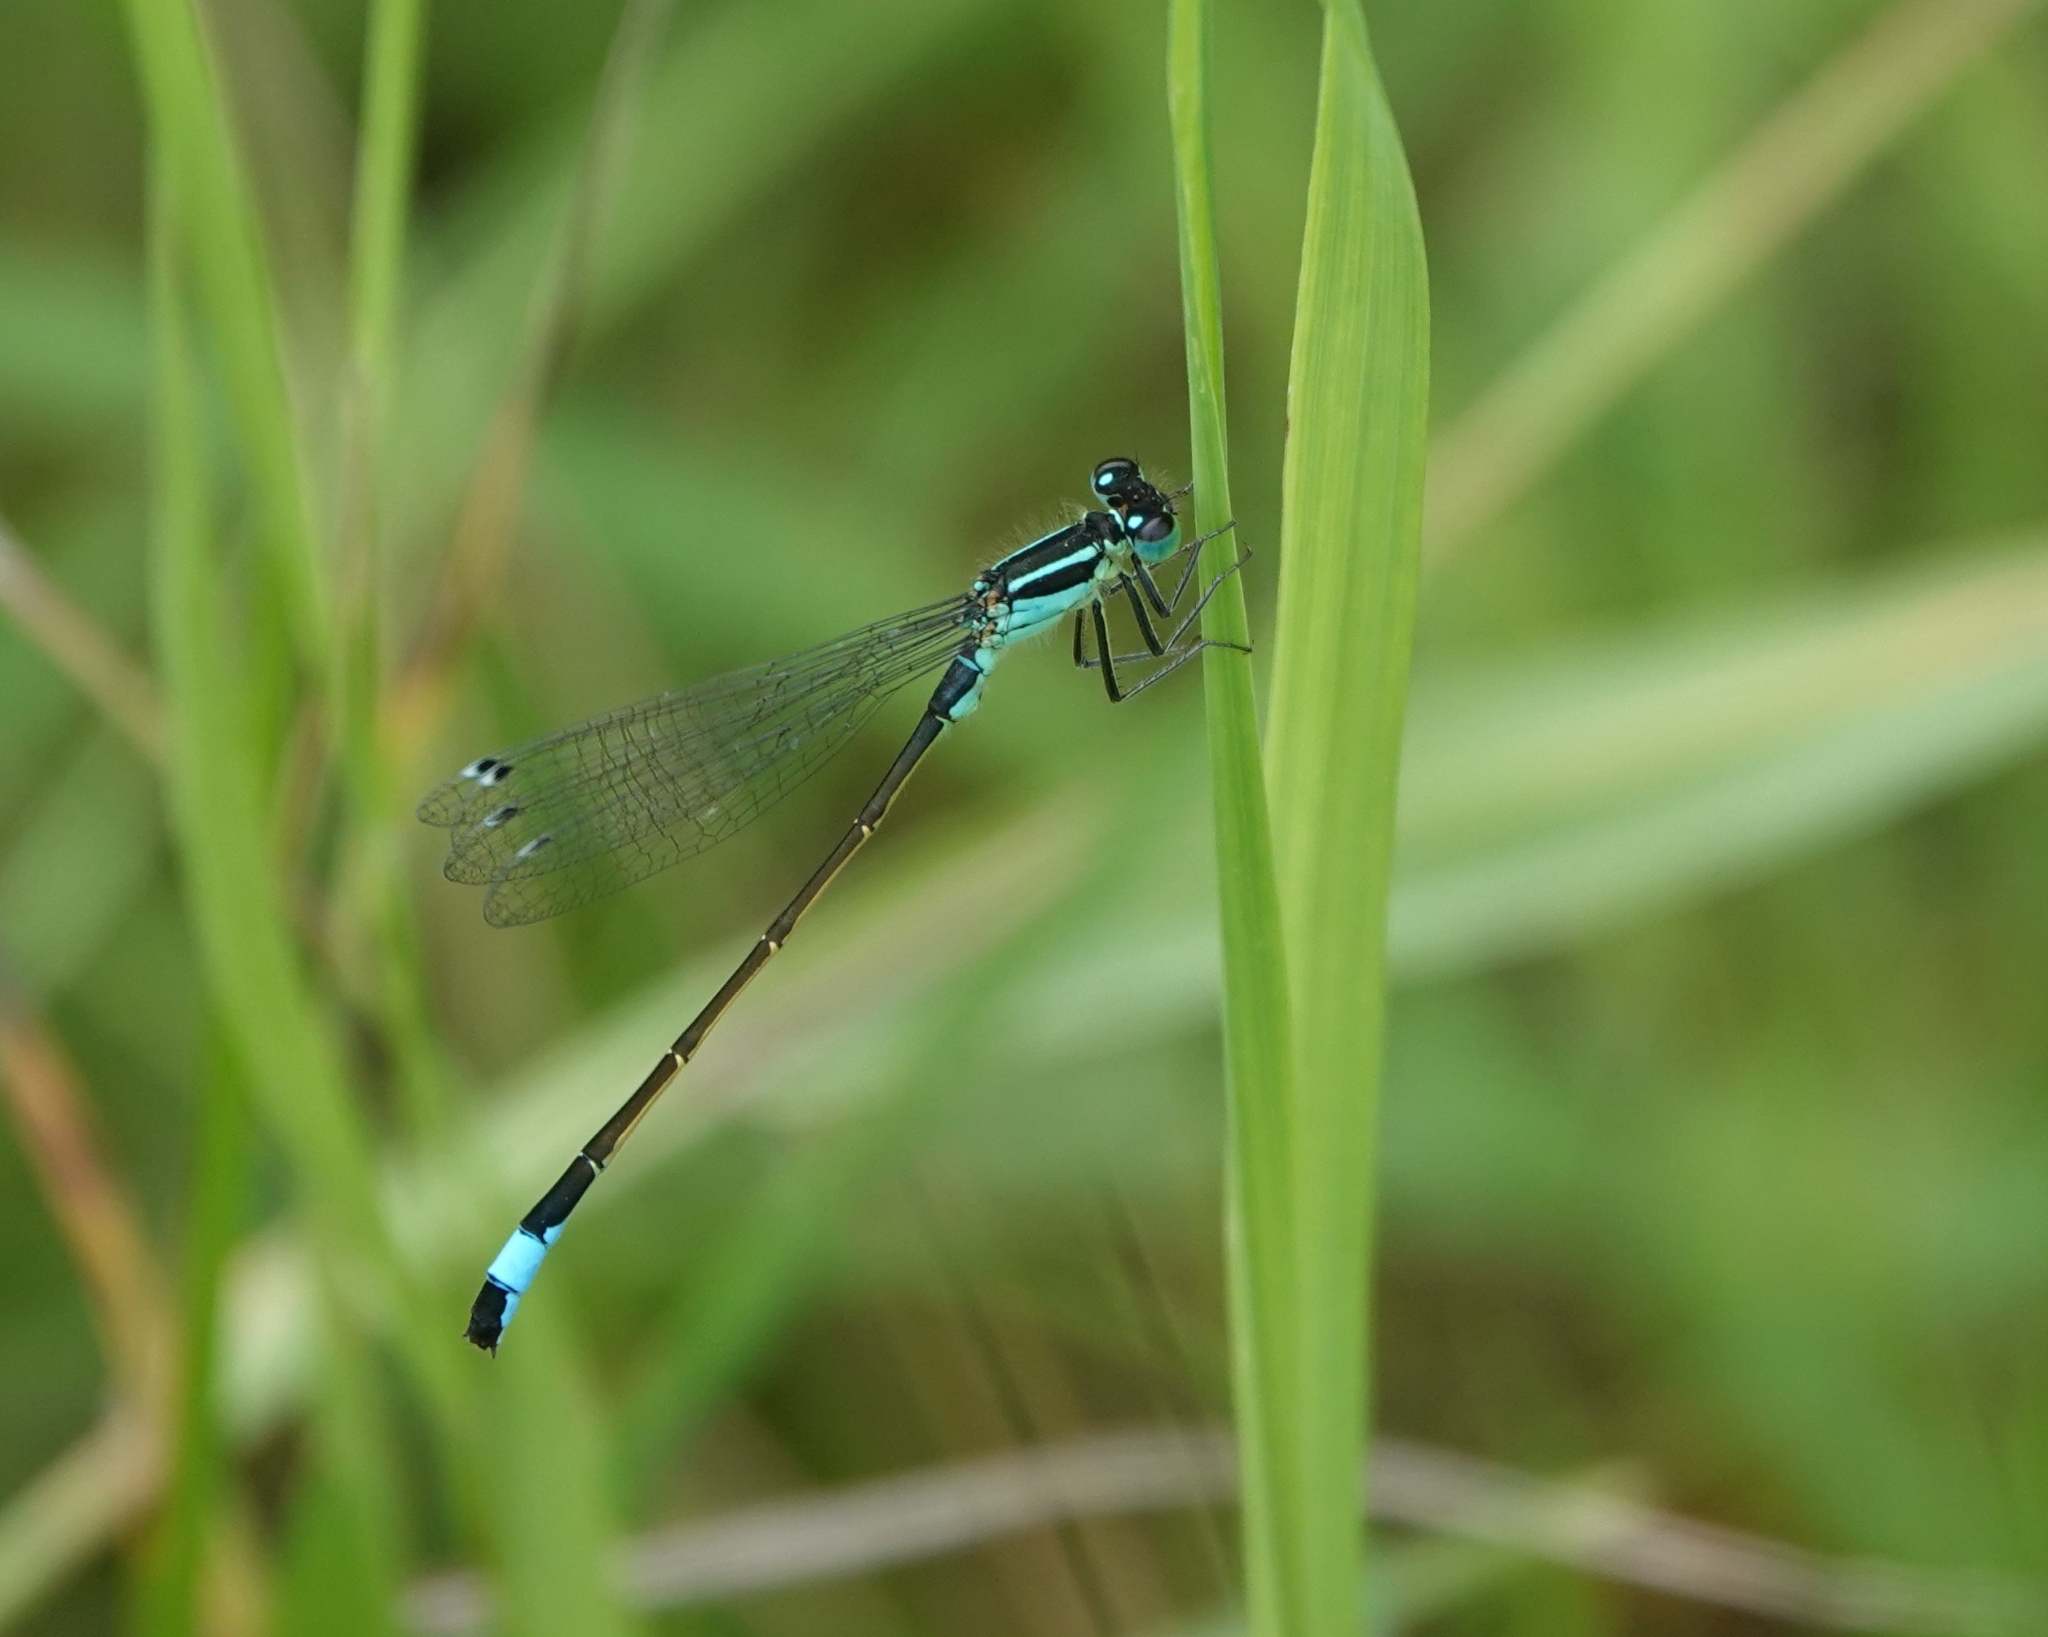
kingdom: Animalia
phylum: Arthropoda
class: Insecta
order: Odonata
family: Coenagrionidae
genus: Ischnura
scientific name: Ischnura elegans
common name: Blue-tailed damselfly
